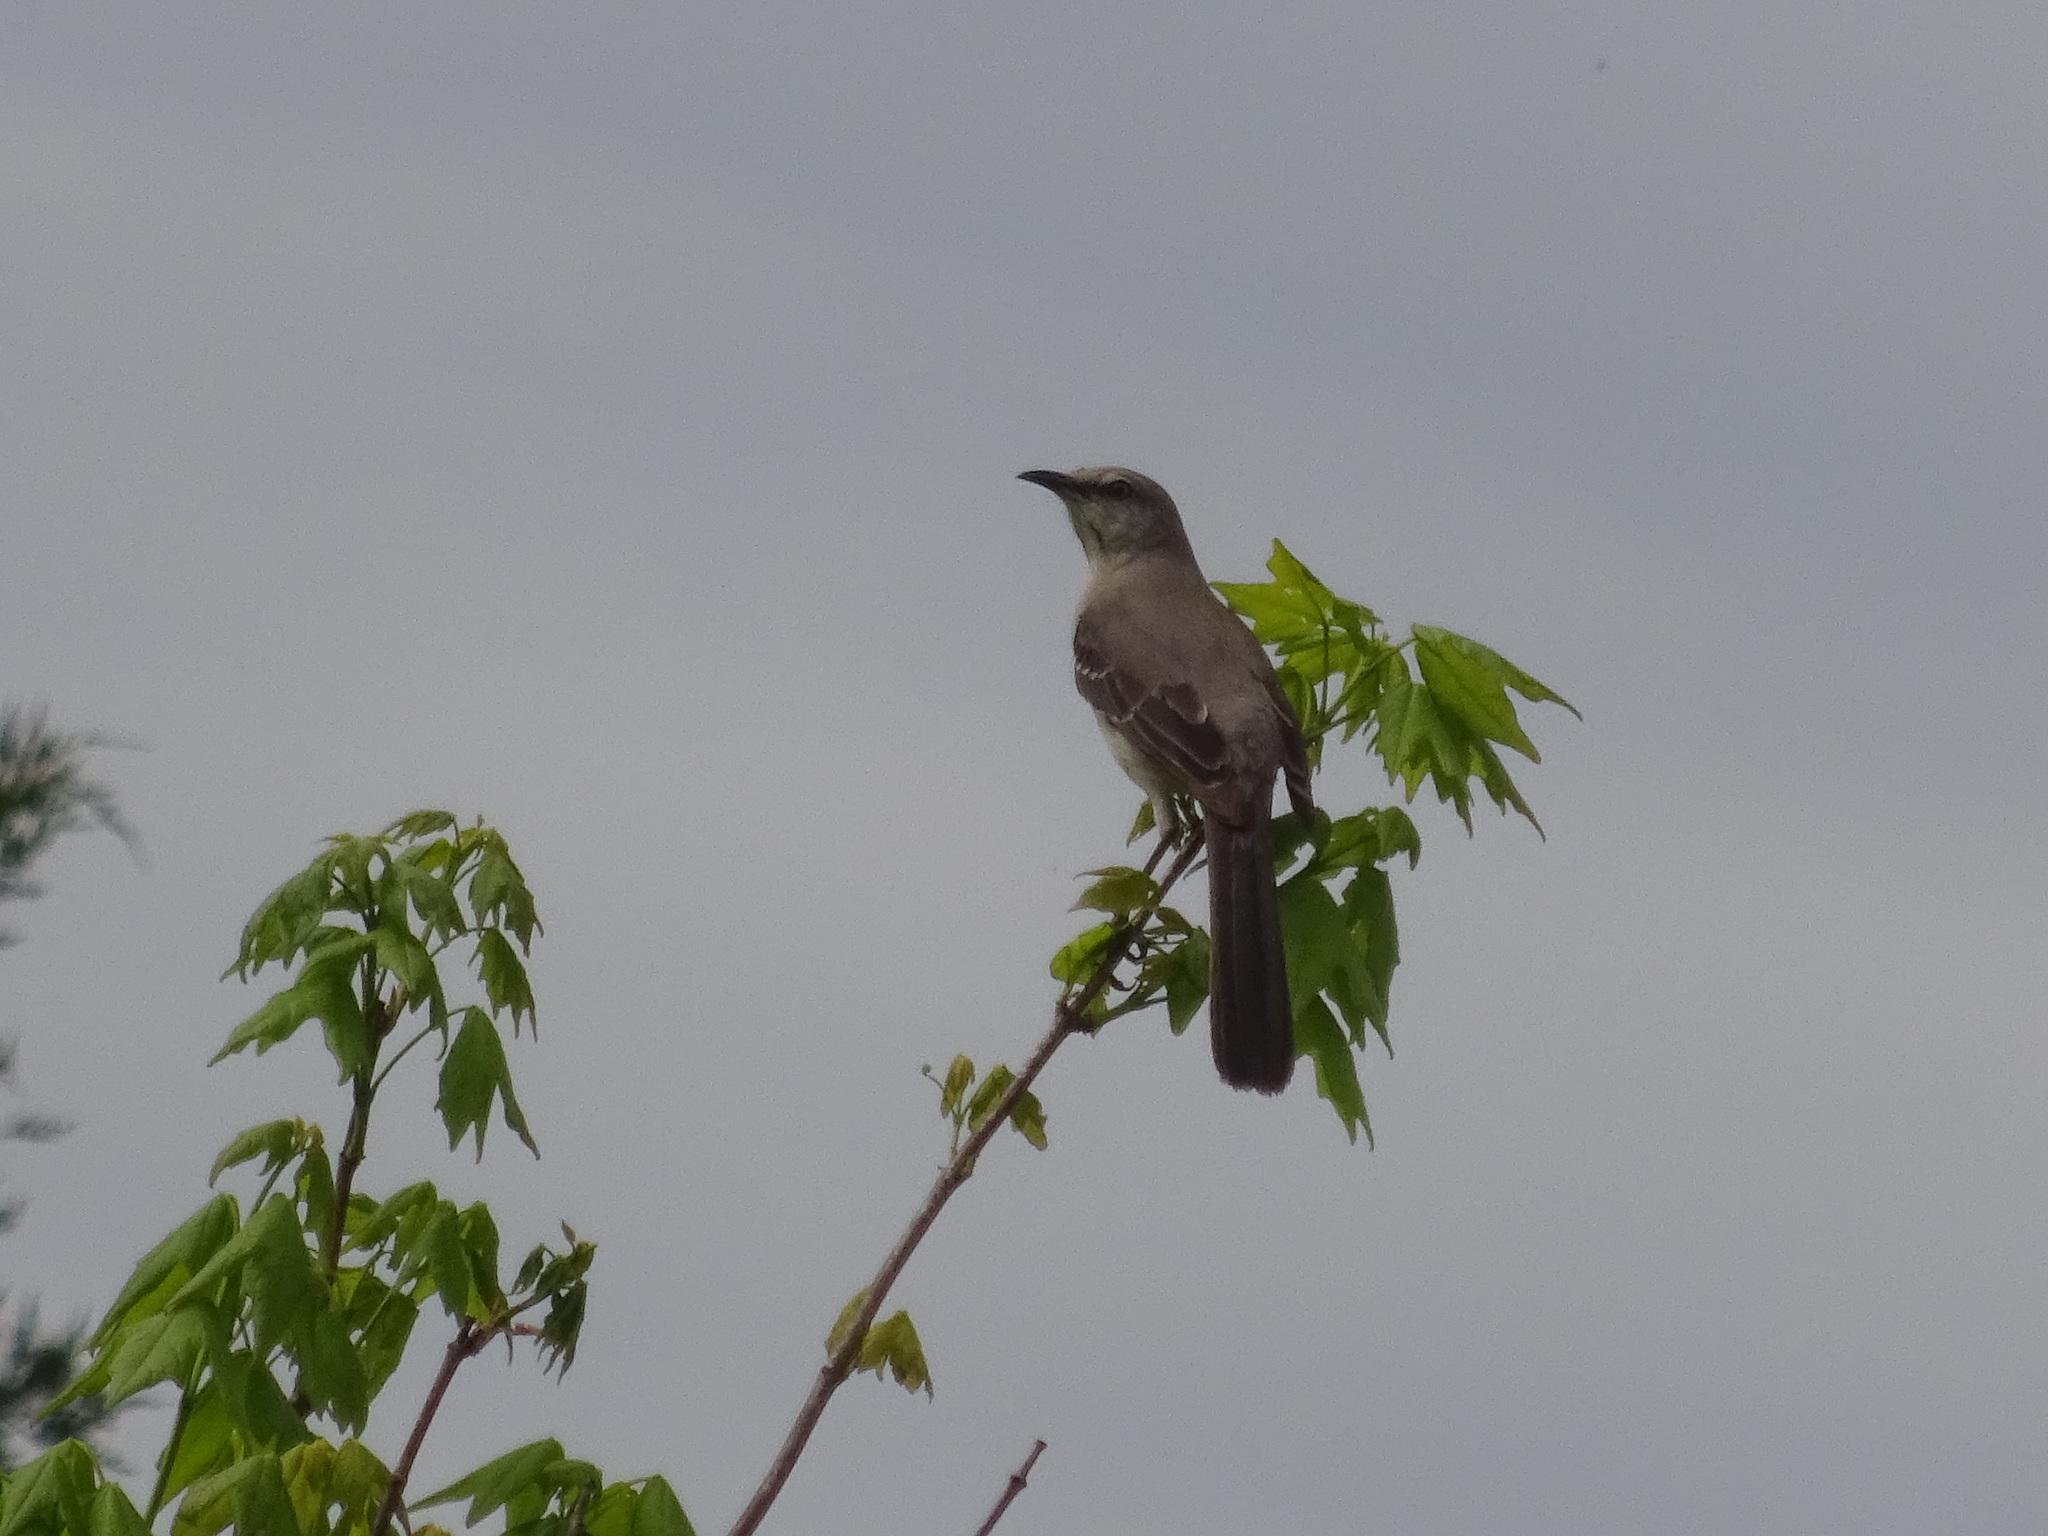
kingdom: Animalia
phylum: Chordata
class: Aves
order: Passeriformes
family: Mimidae
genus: Mimus
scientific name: Mimus polyglottos
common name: Northern mockingbird
